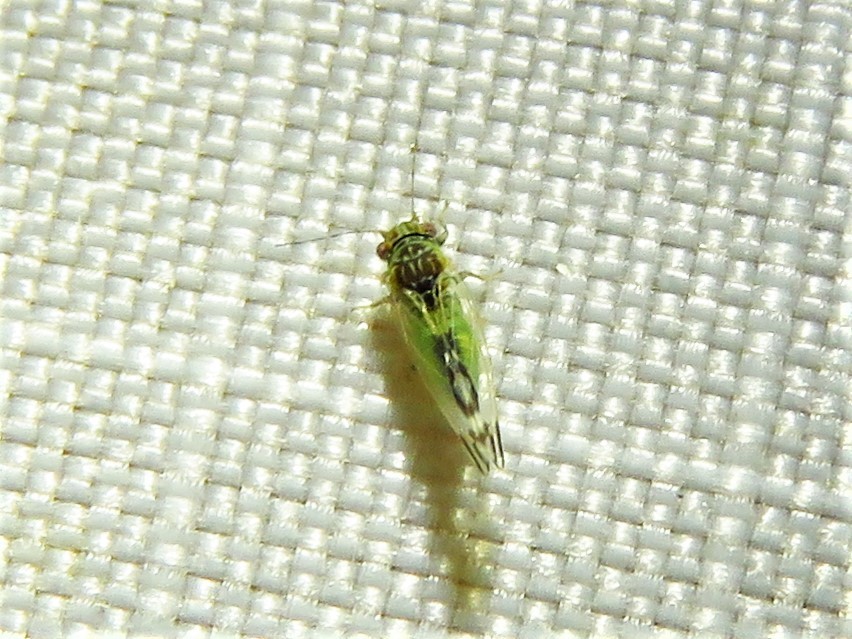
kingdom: Animalia
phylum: Arthropoda
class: Insecta
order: Hemiptera
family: Psyllidae
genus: Heteropsylla
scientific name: Heteropsylla texana
